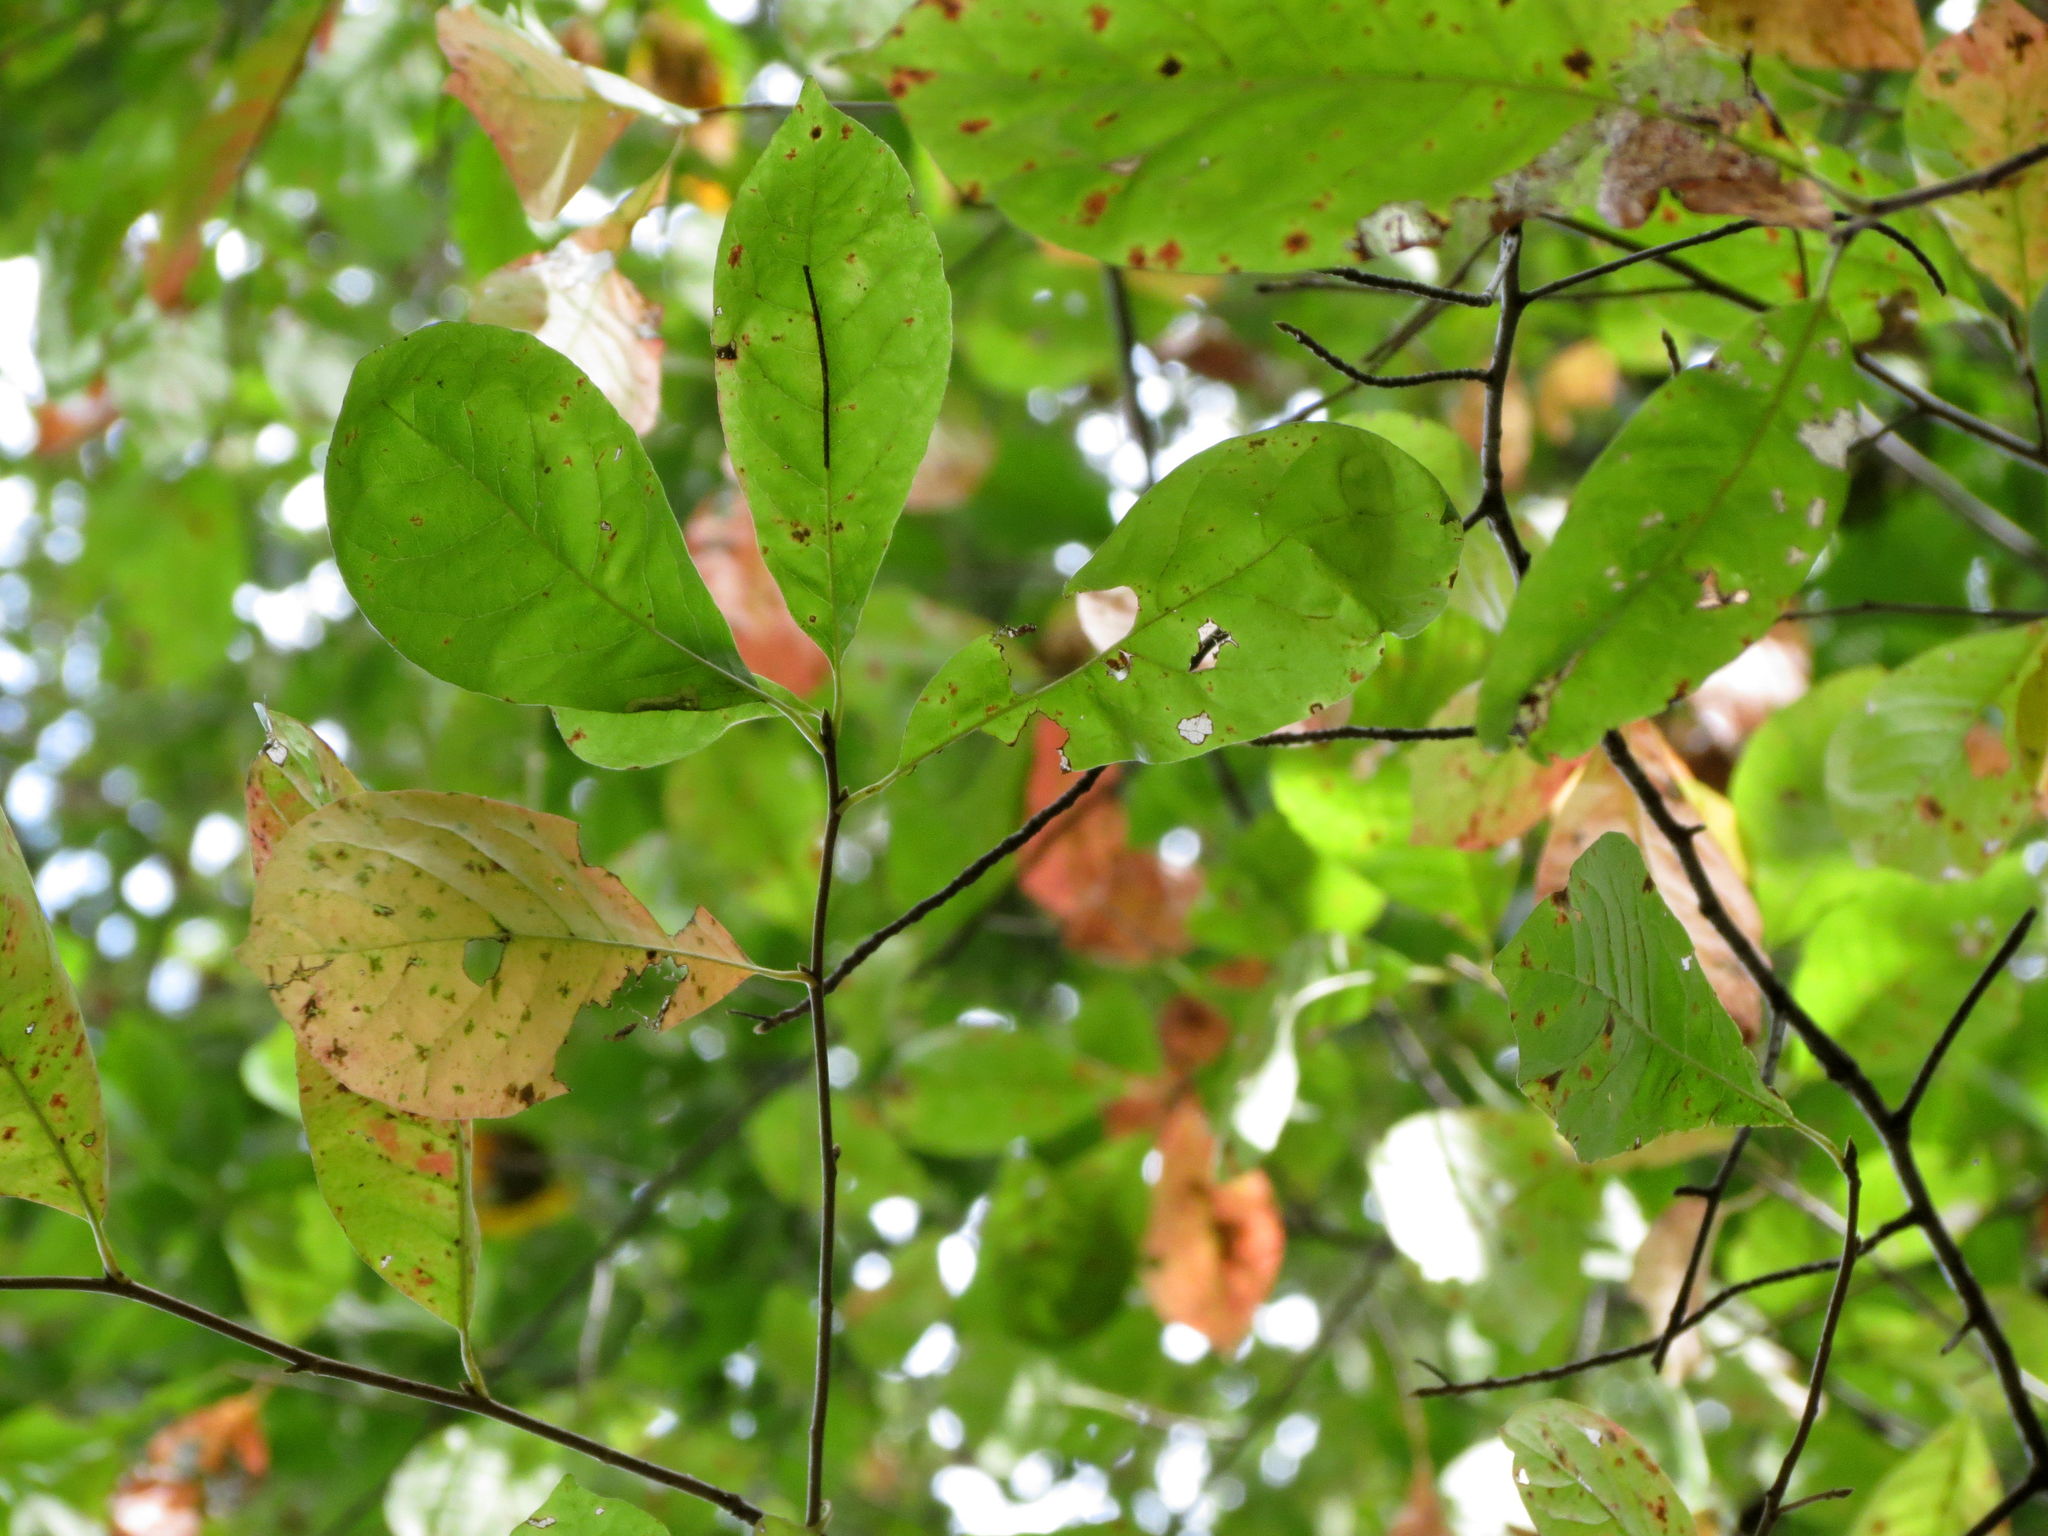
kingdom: Plantae
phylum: Tracheophyta
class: Magnoliopsida
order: Cornales
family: Nyssaceae
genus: Nyssa
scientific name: Nyssa sylvatica
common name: Black tupelo
